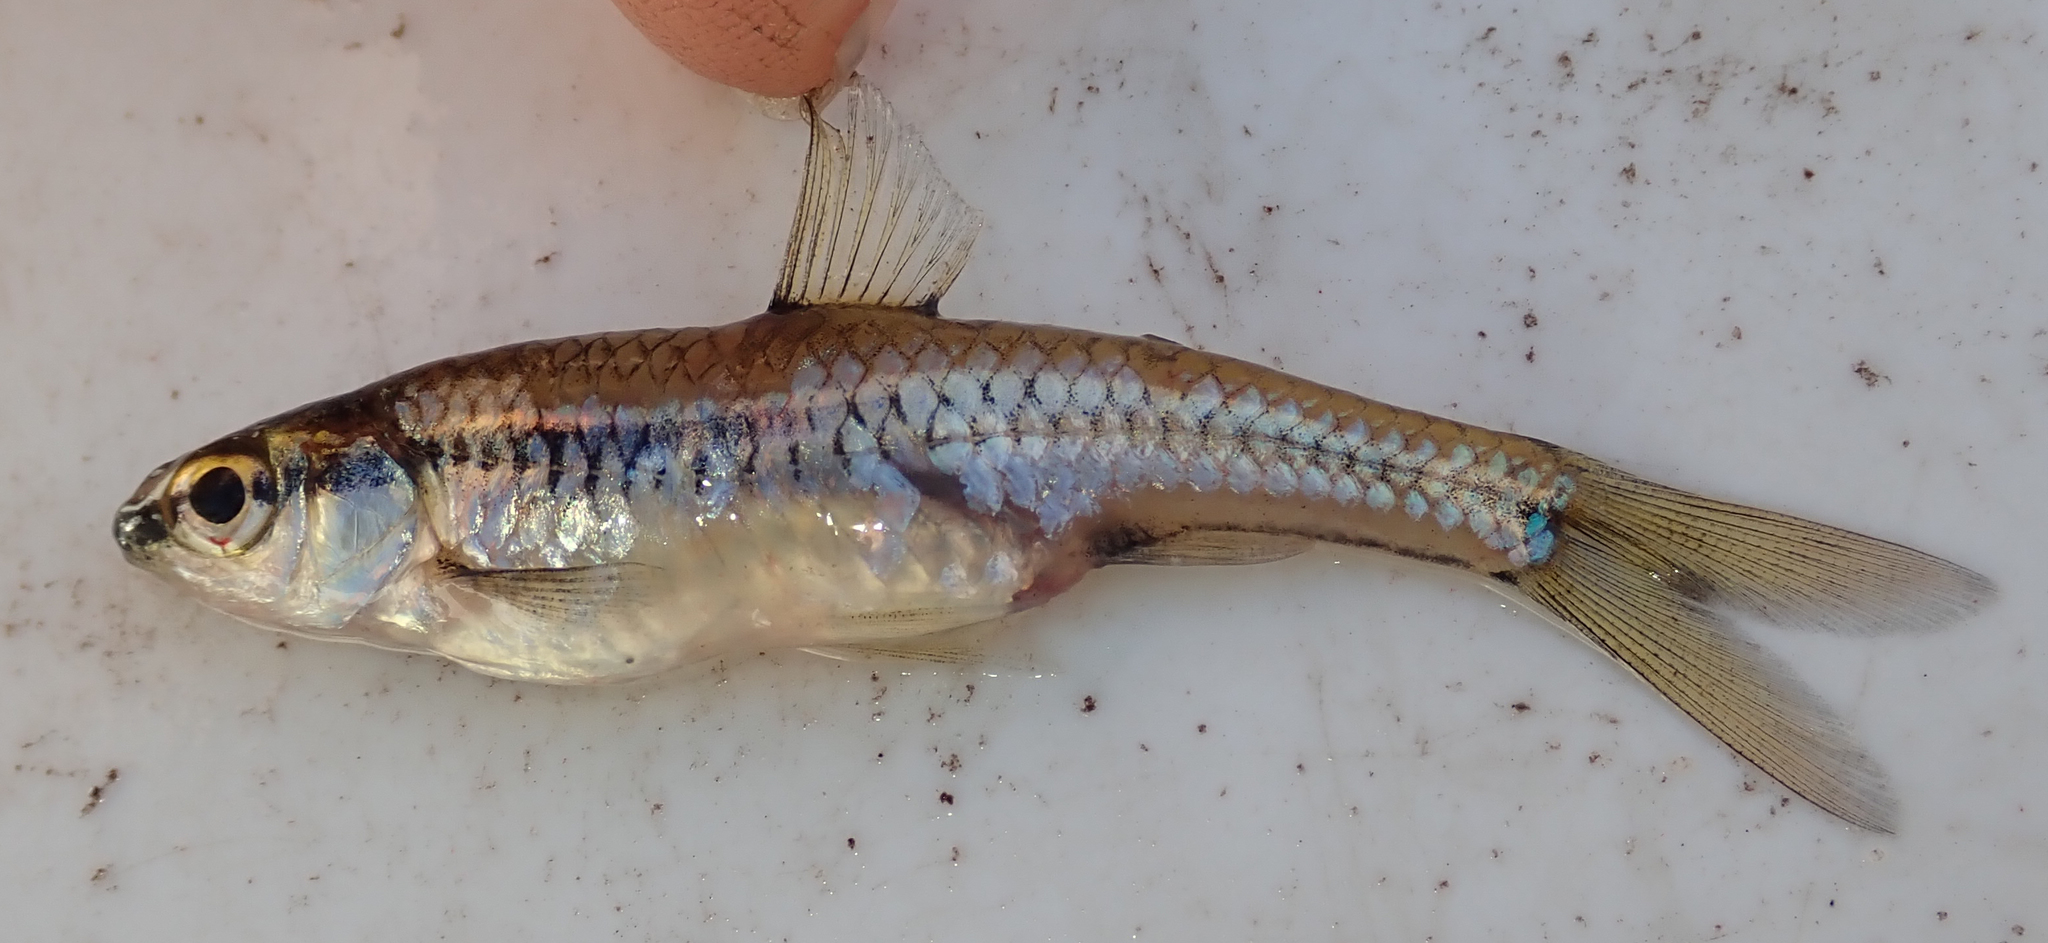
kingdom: Animalia
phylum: Chordata
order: Cypriniformes
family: Cyprinidae
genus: Enteromius
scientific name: Enteromius bifrenatus
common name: Hyphen barb
